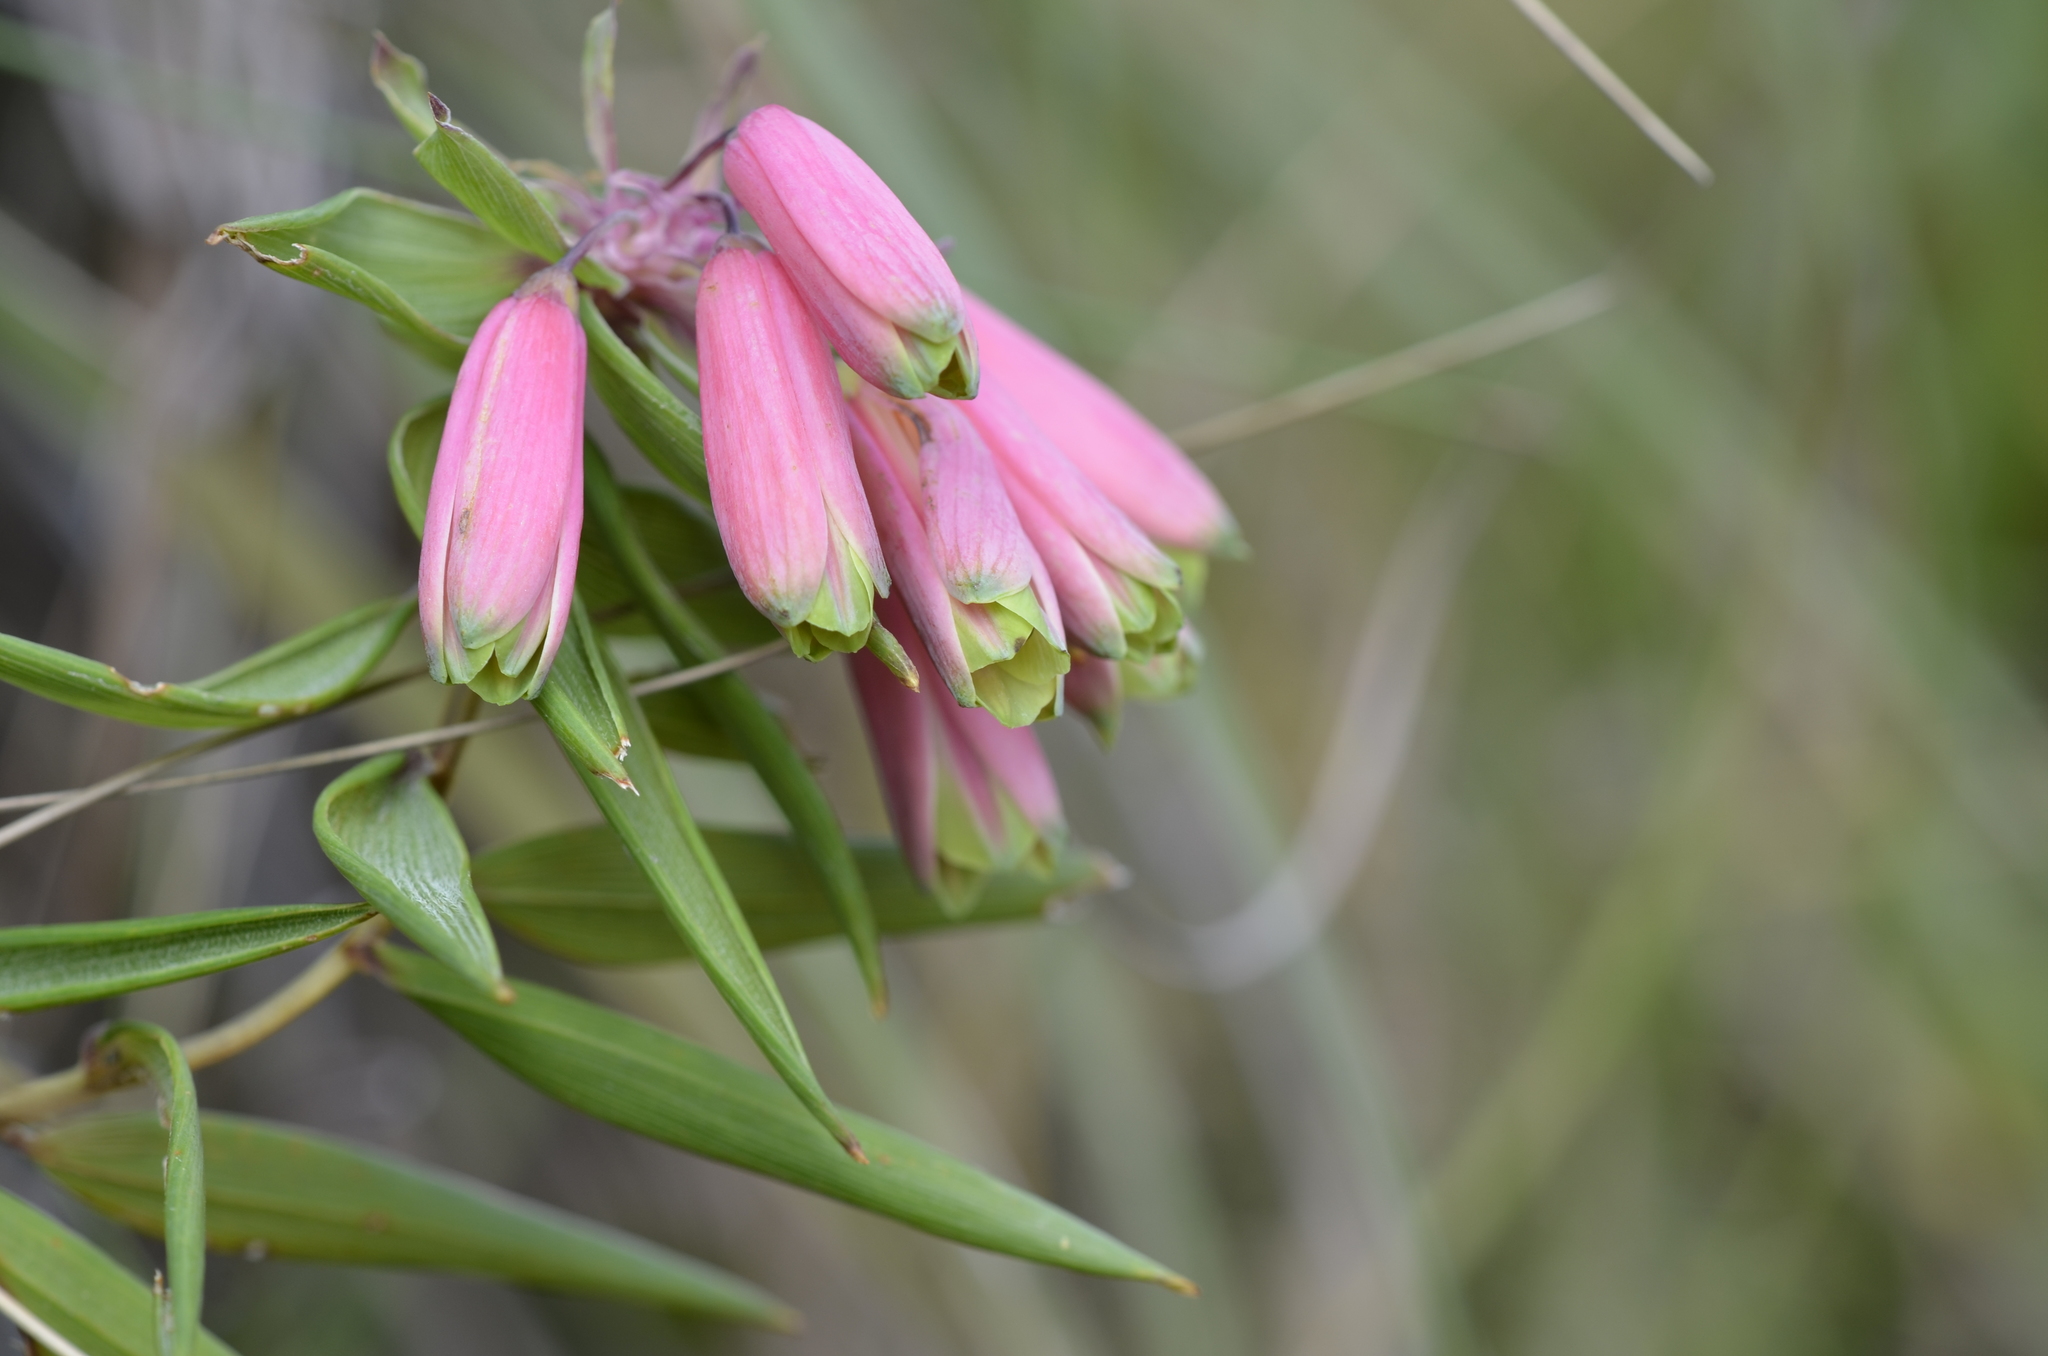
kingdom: Plantae
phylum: Tracheophyta
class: Liliopsida
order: Liliales
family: Alstroemeriaceae
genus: Bomarea
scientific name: Bomarea uncifolia
